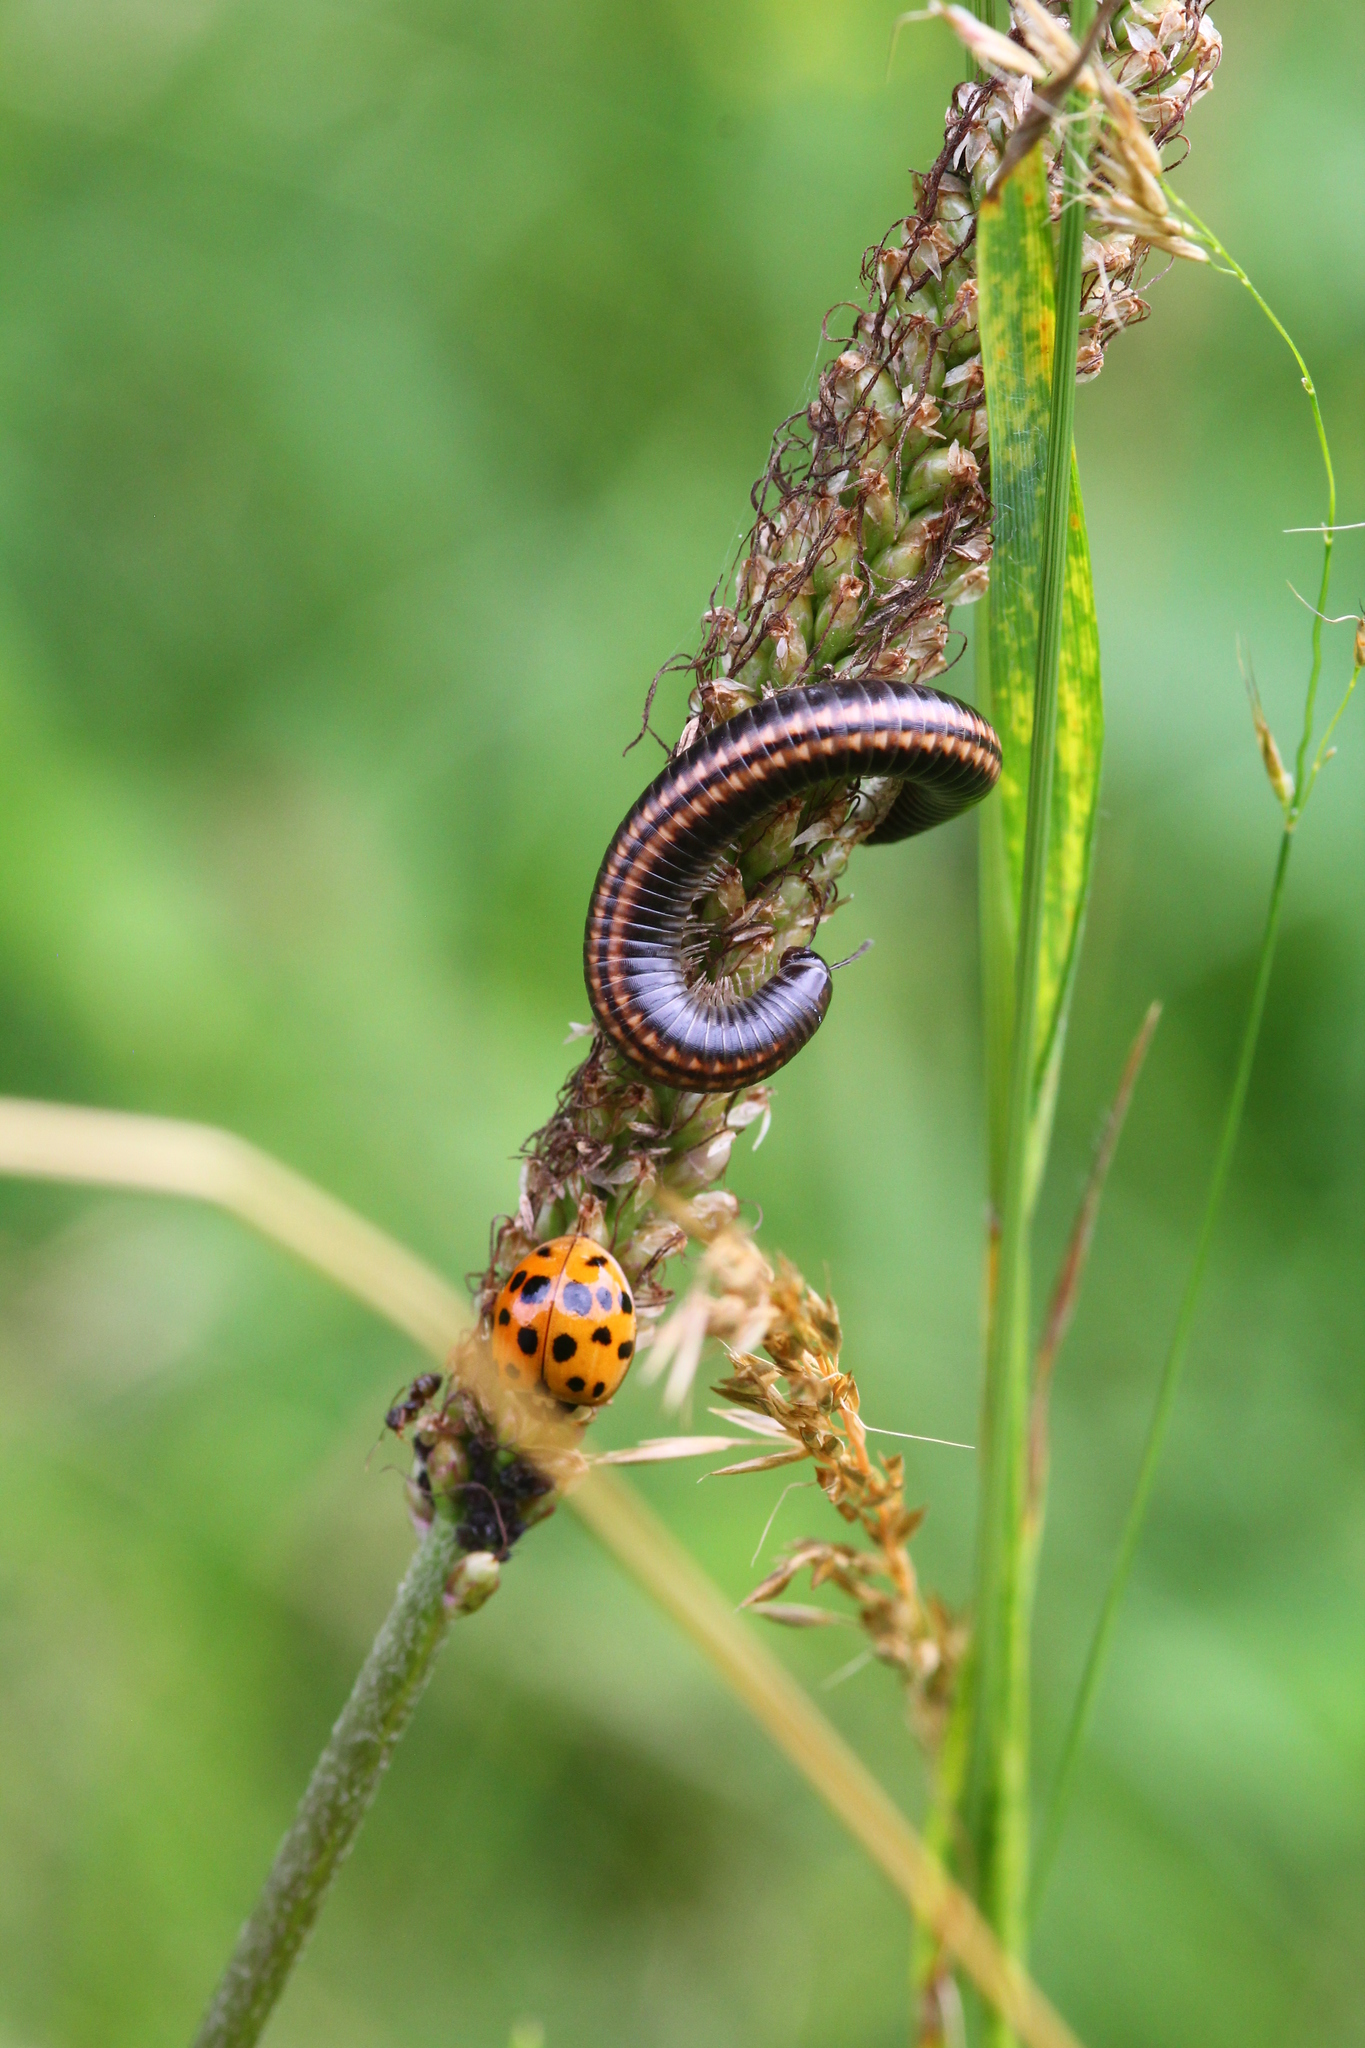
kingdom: Animalia
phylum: Arthropoda
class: Diplopoda
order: Julida
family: Julidae
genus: Ommatoiulus
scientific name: Ommatoiulus sabulosus
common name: Striped millipede
